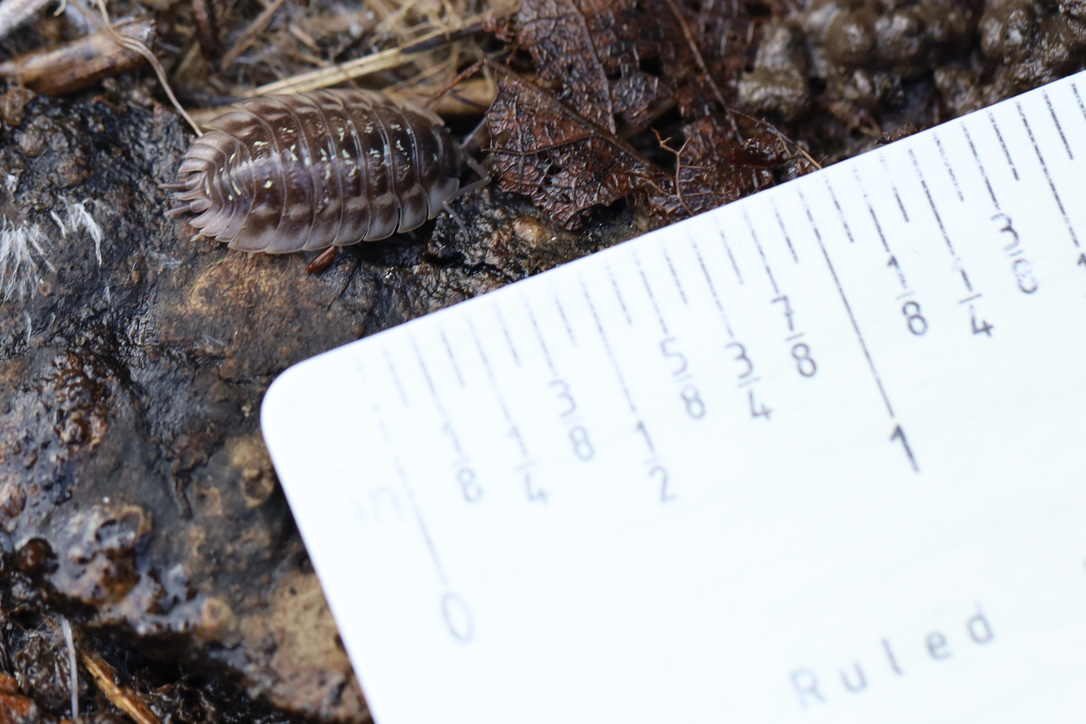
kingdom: Animalia
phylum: Arthropoda
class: Malacostraca
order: Isopoda
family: Oniscidae
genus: Oniscus
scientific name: Oniscus asellus
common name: Common shiny woodlouse
